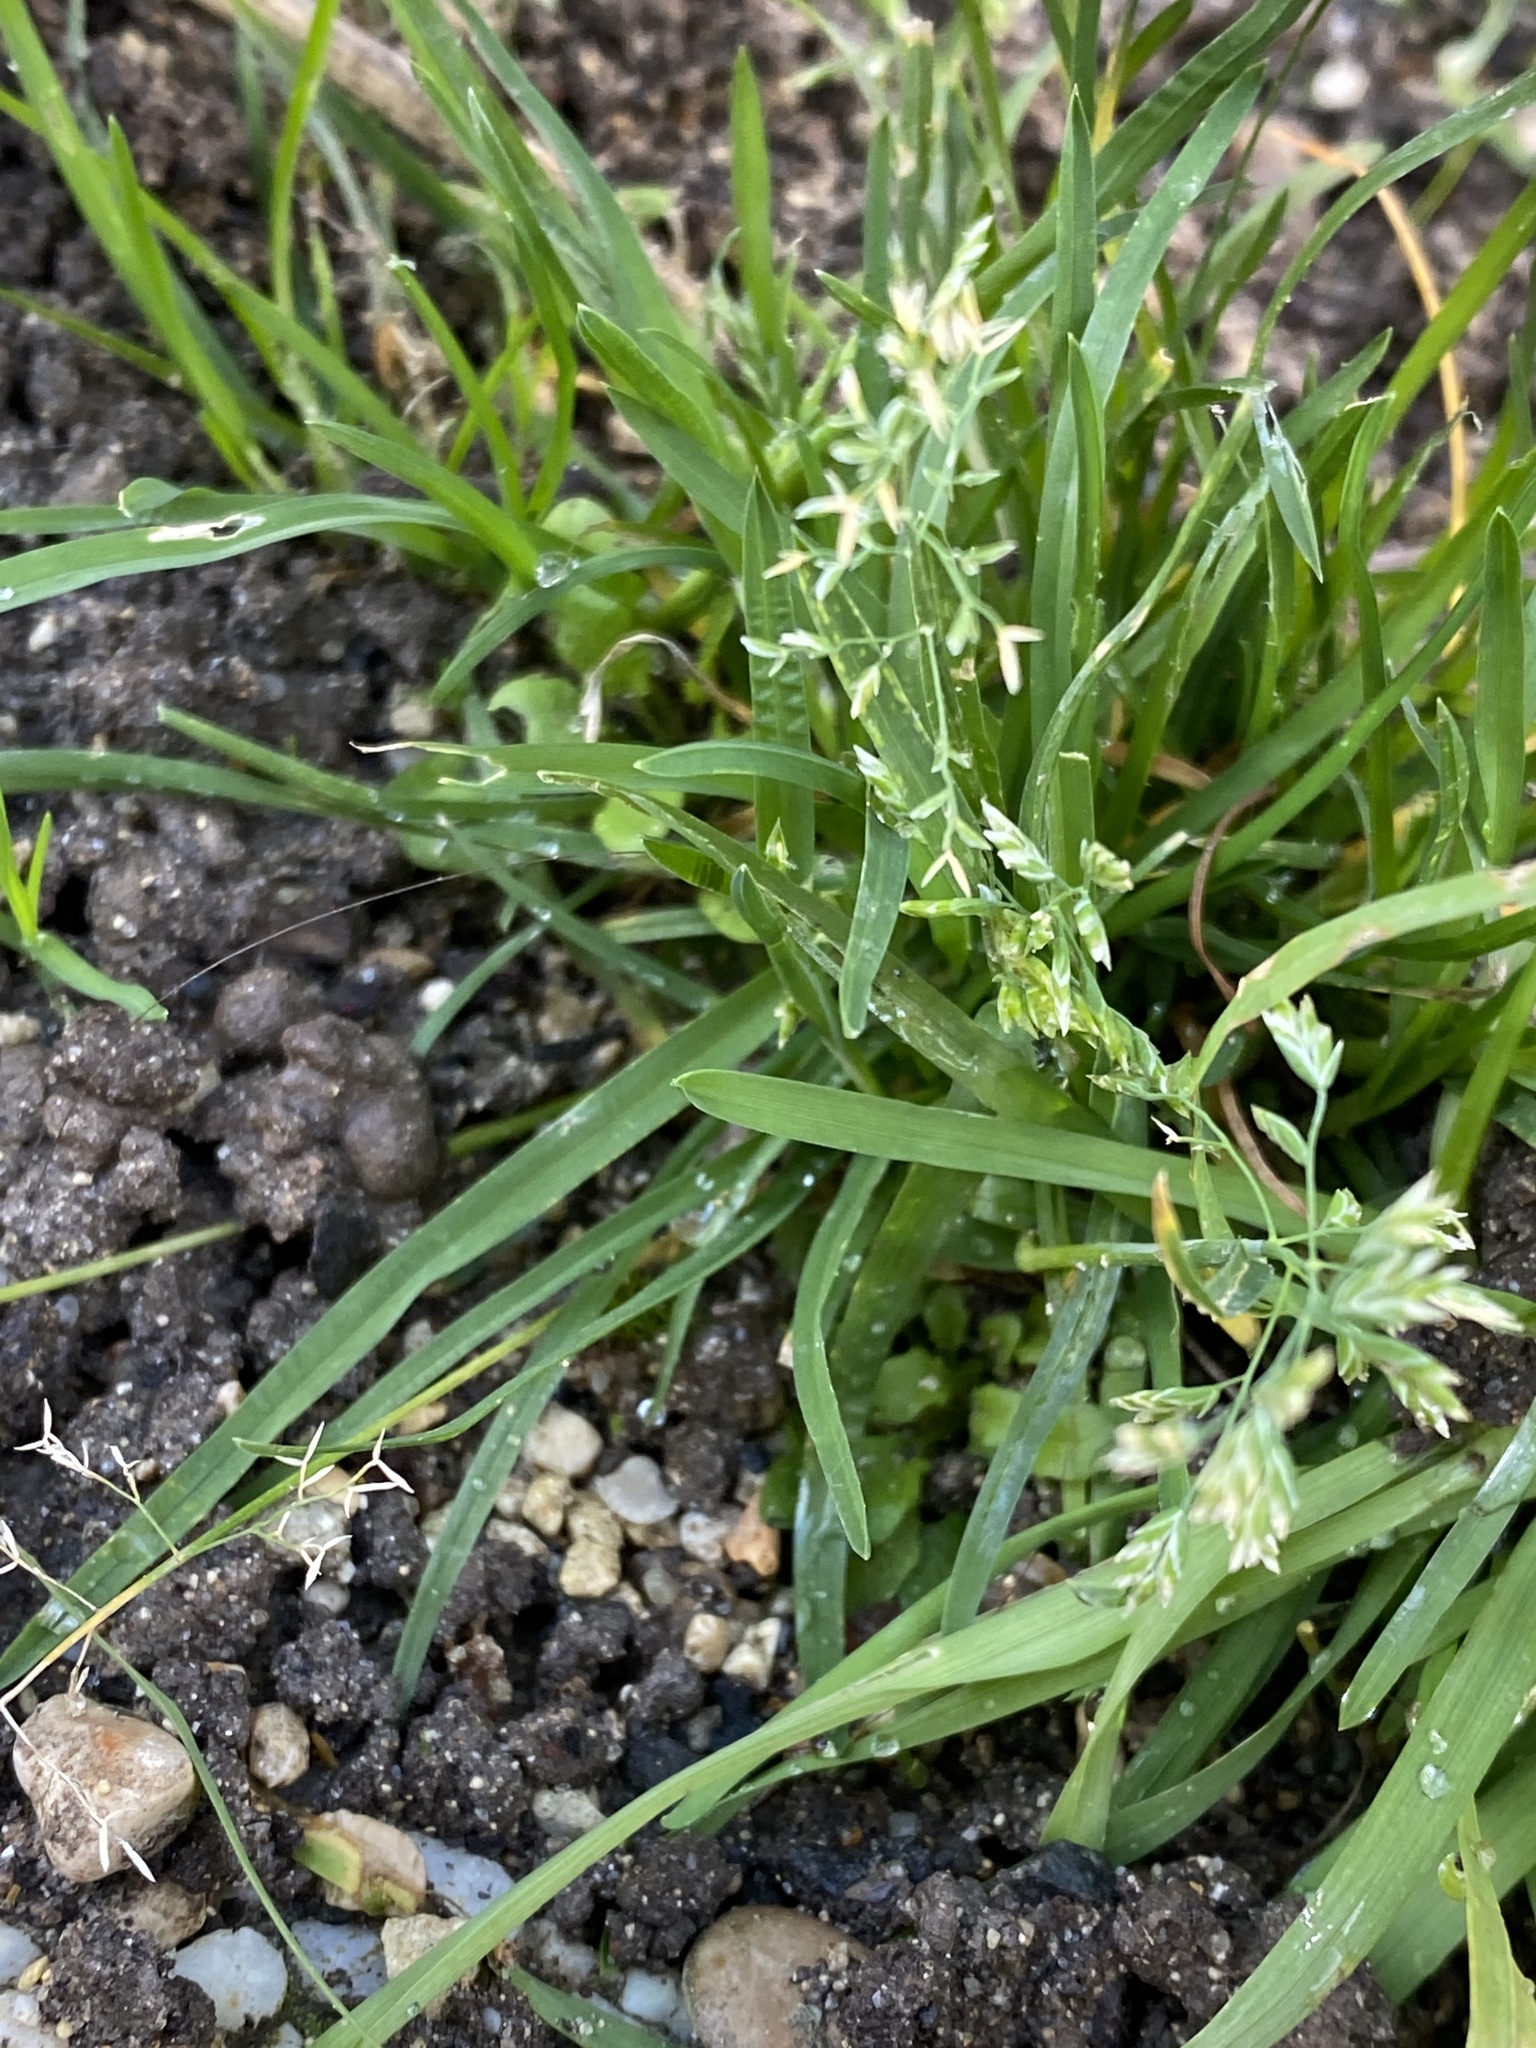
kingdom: Plantae
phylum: Tracheophyta
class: Liliopsida
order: Poales
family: Poaceae
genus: Poa
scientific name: Poa annua
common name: Annual bluegrass
